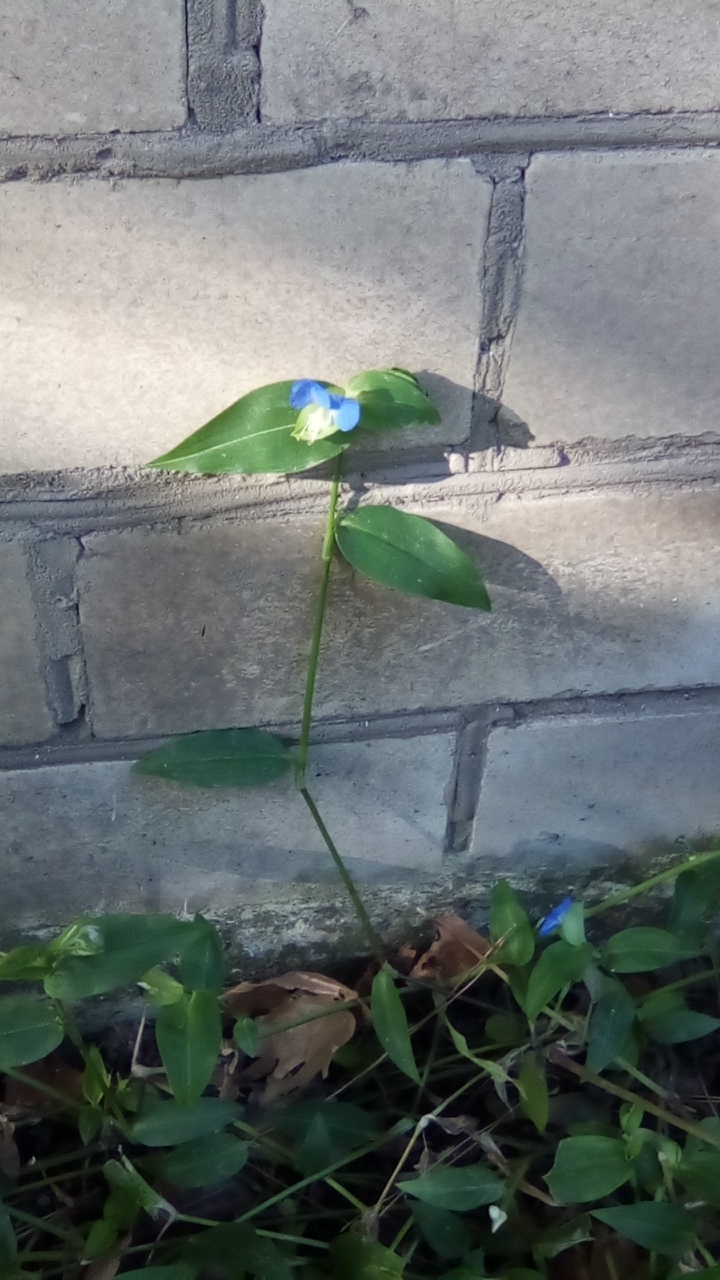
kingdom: Plantae
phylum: Tracheophyta
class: Liliopsida
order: Commelinales
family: Commelinaceae
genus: Commelina
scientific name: Commelina communis
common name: Asiatic dayflower
